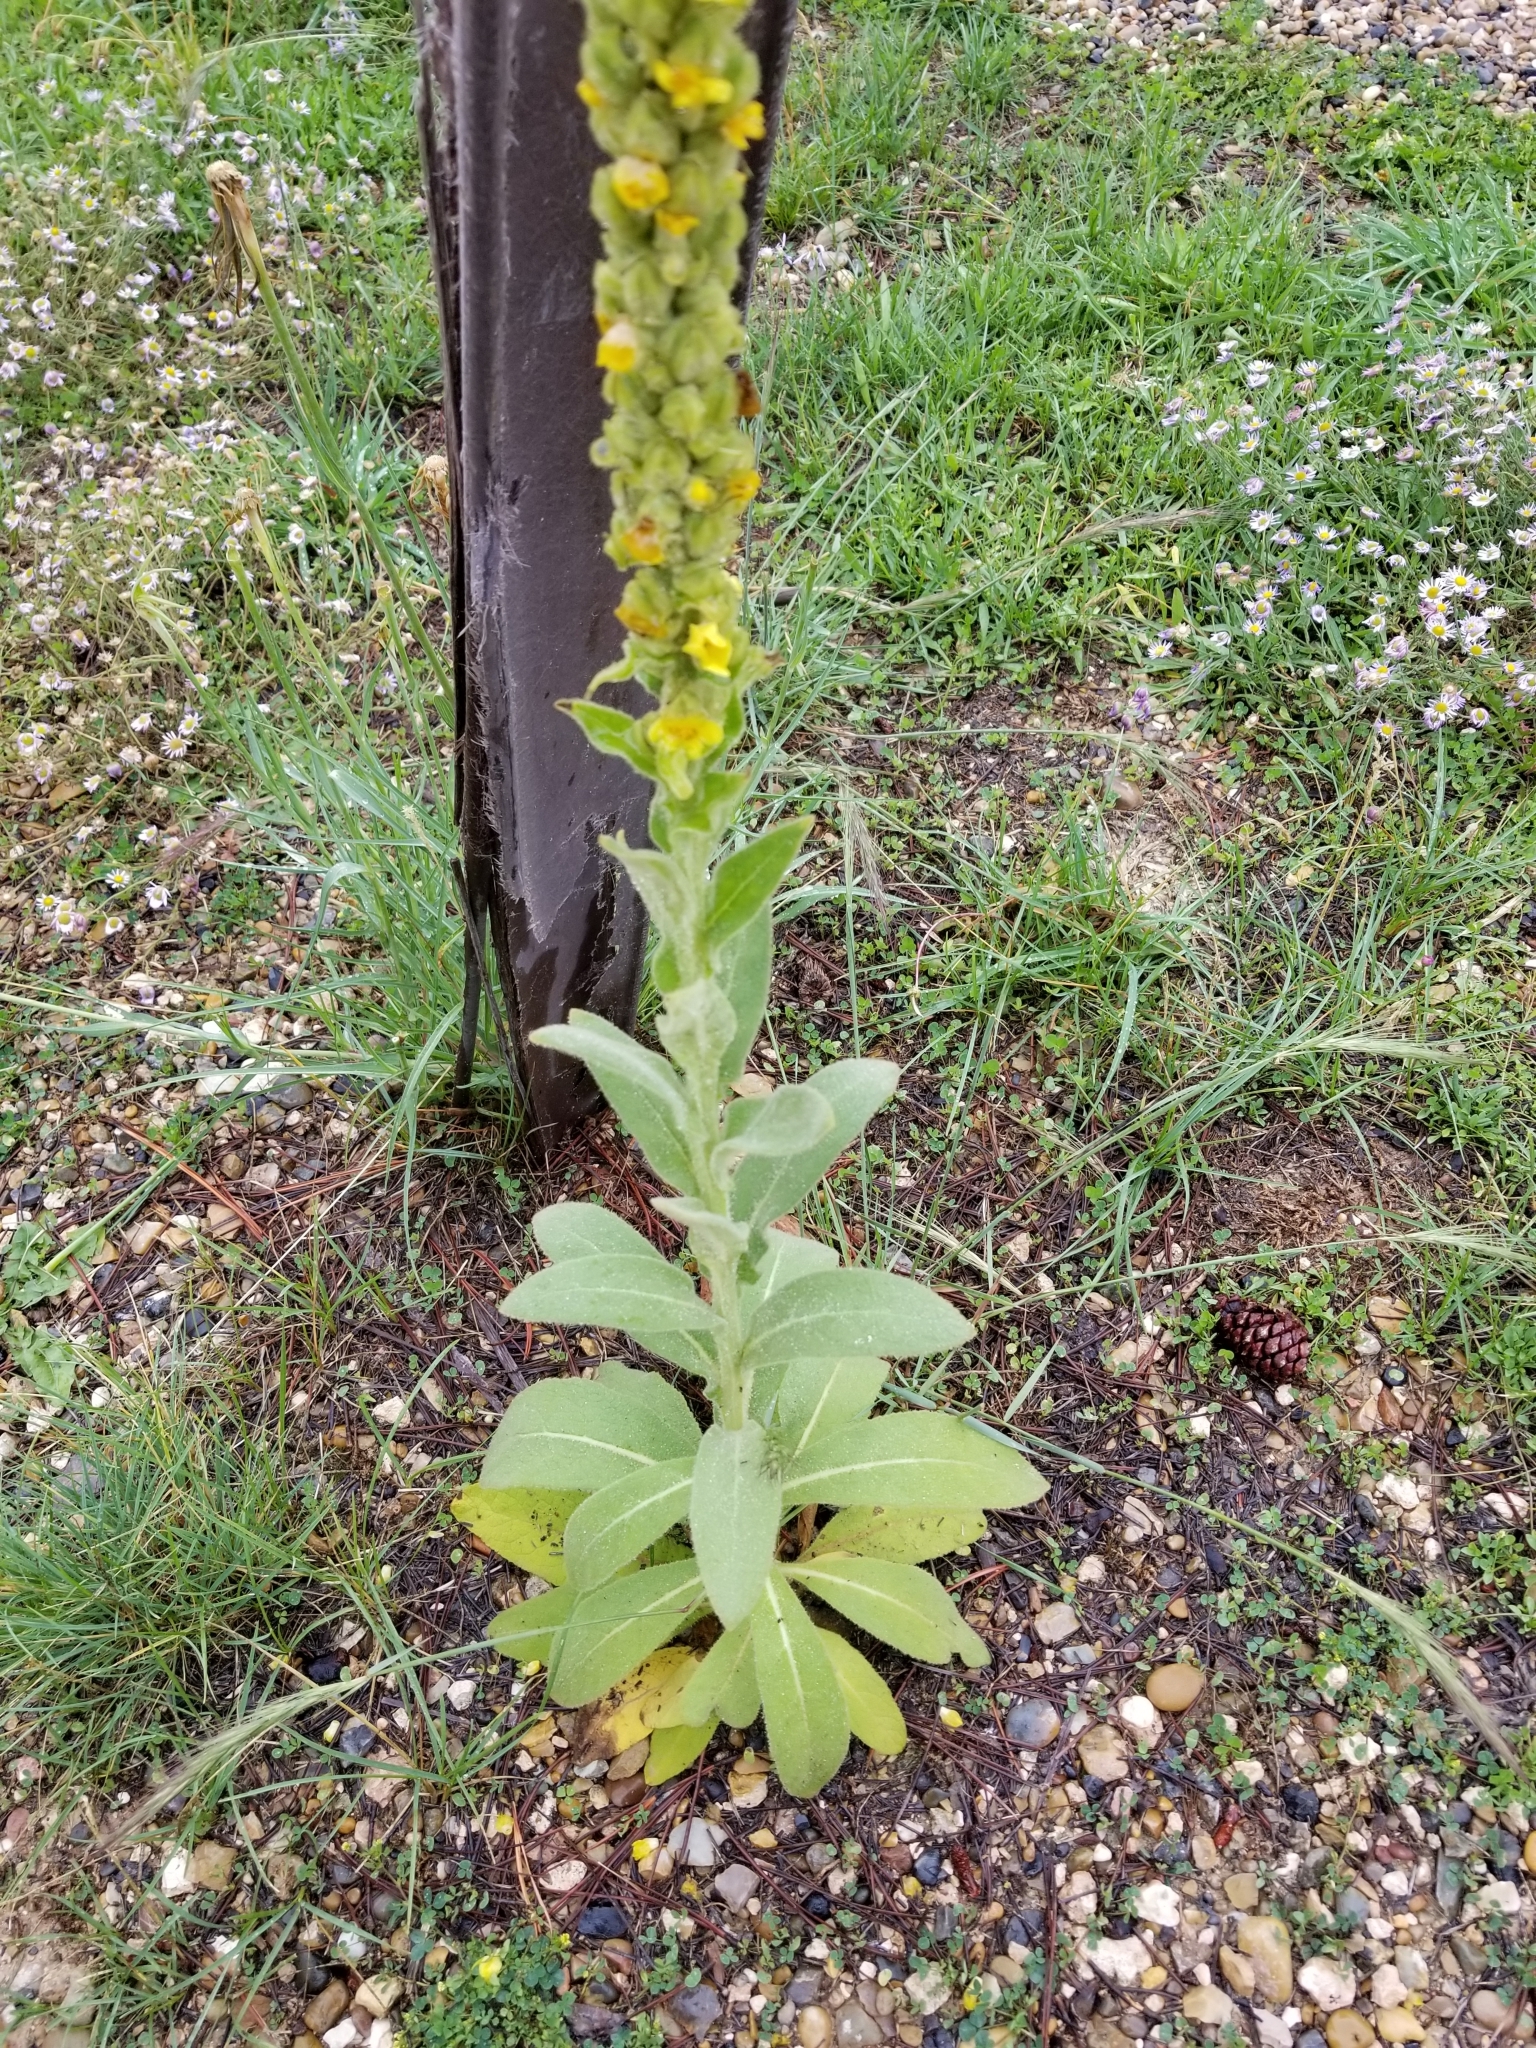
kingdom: Plantae
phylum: Tracheophyta
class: Magnoliopsida
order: Lamiales
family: Scrophulariaceae
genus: Verbascum
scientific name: Verbascum thapsus
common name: Common mullein
